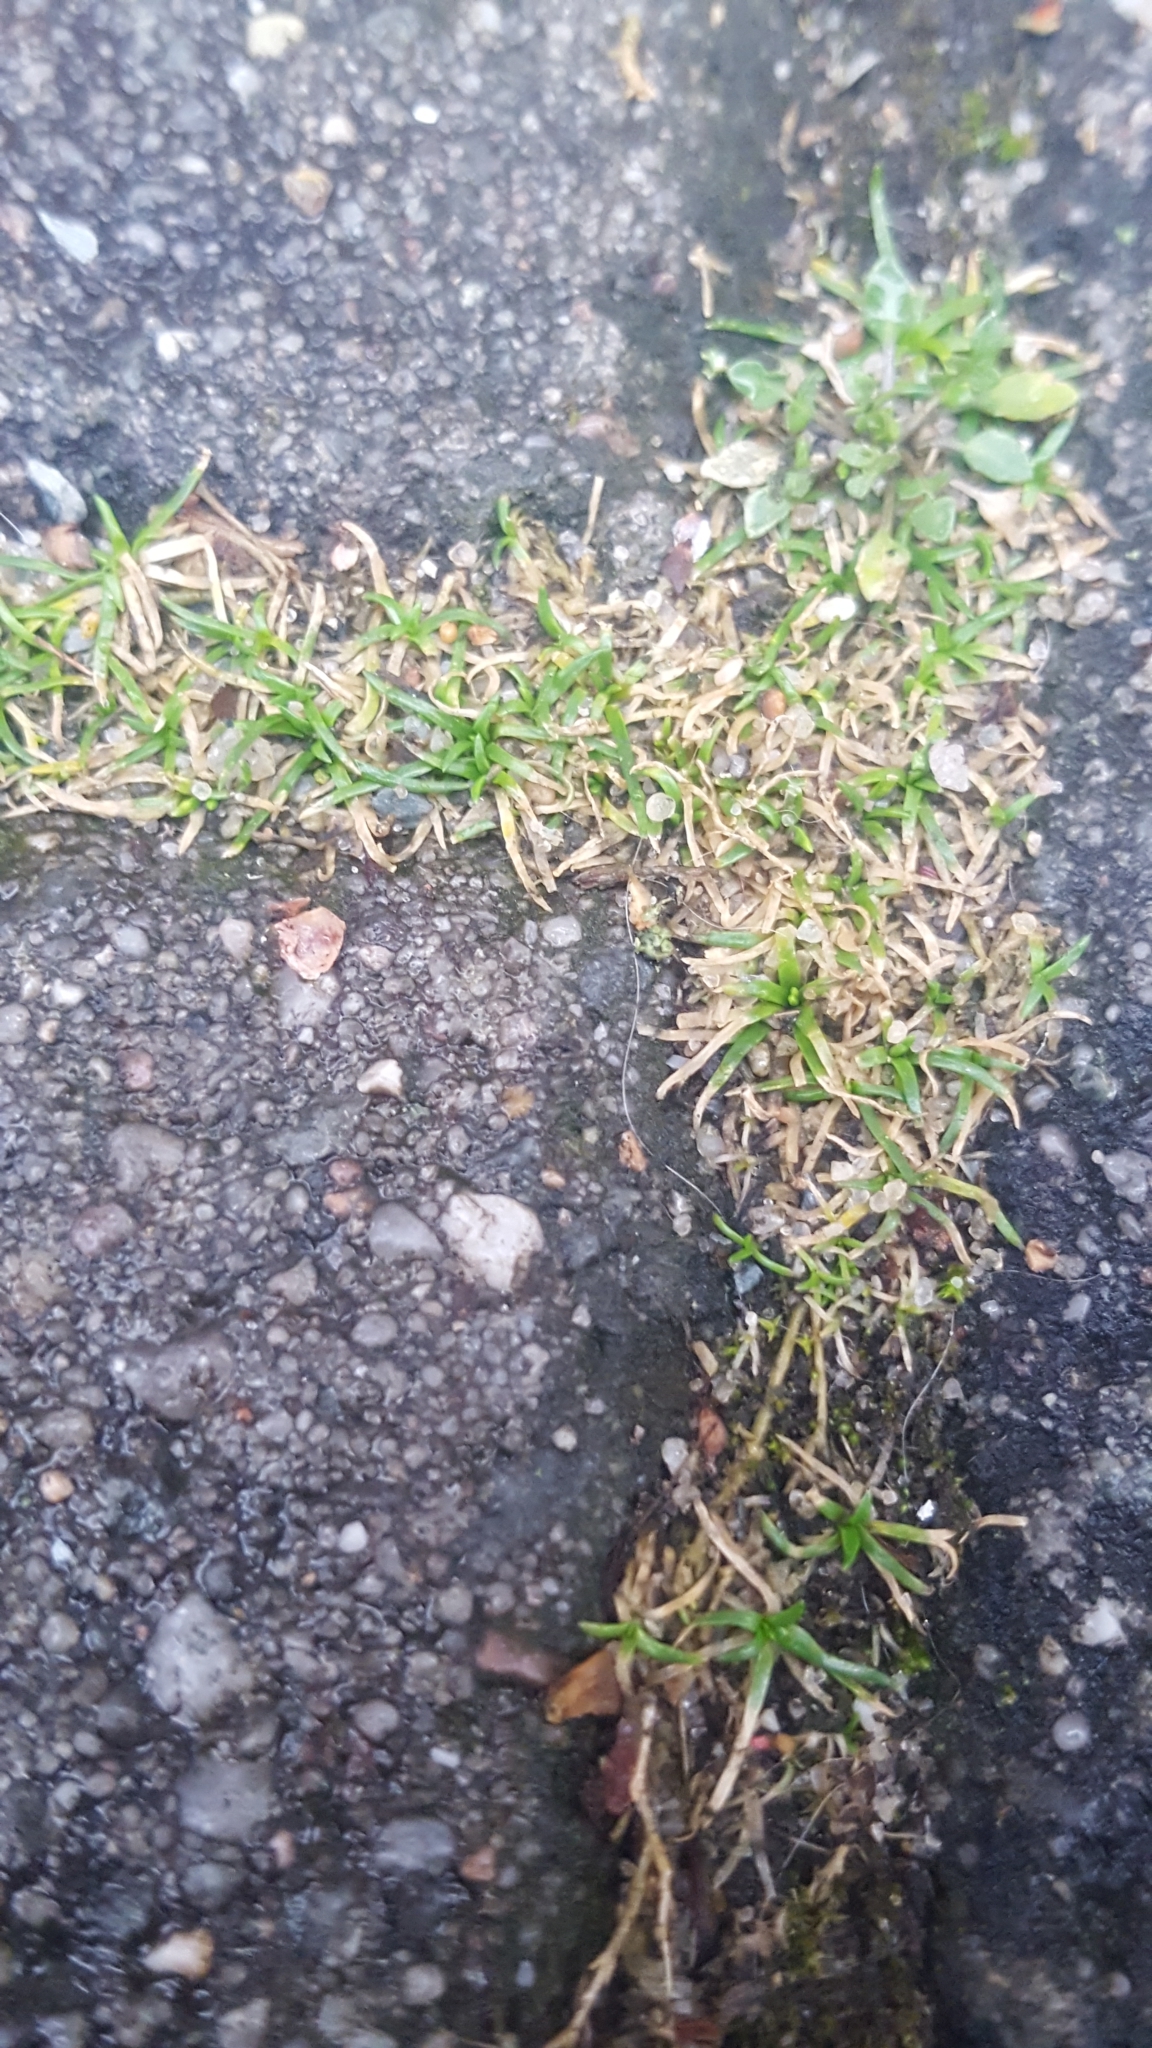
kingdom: Plantae
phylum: Tracheophyta
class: Magnoliopsida
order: Caryophyllales
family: Caryophyllaceae
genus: Sagina
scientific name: Sagina procumbens
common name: Procumbent pearlwort
